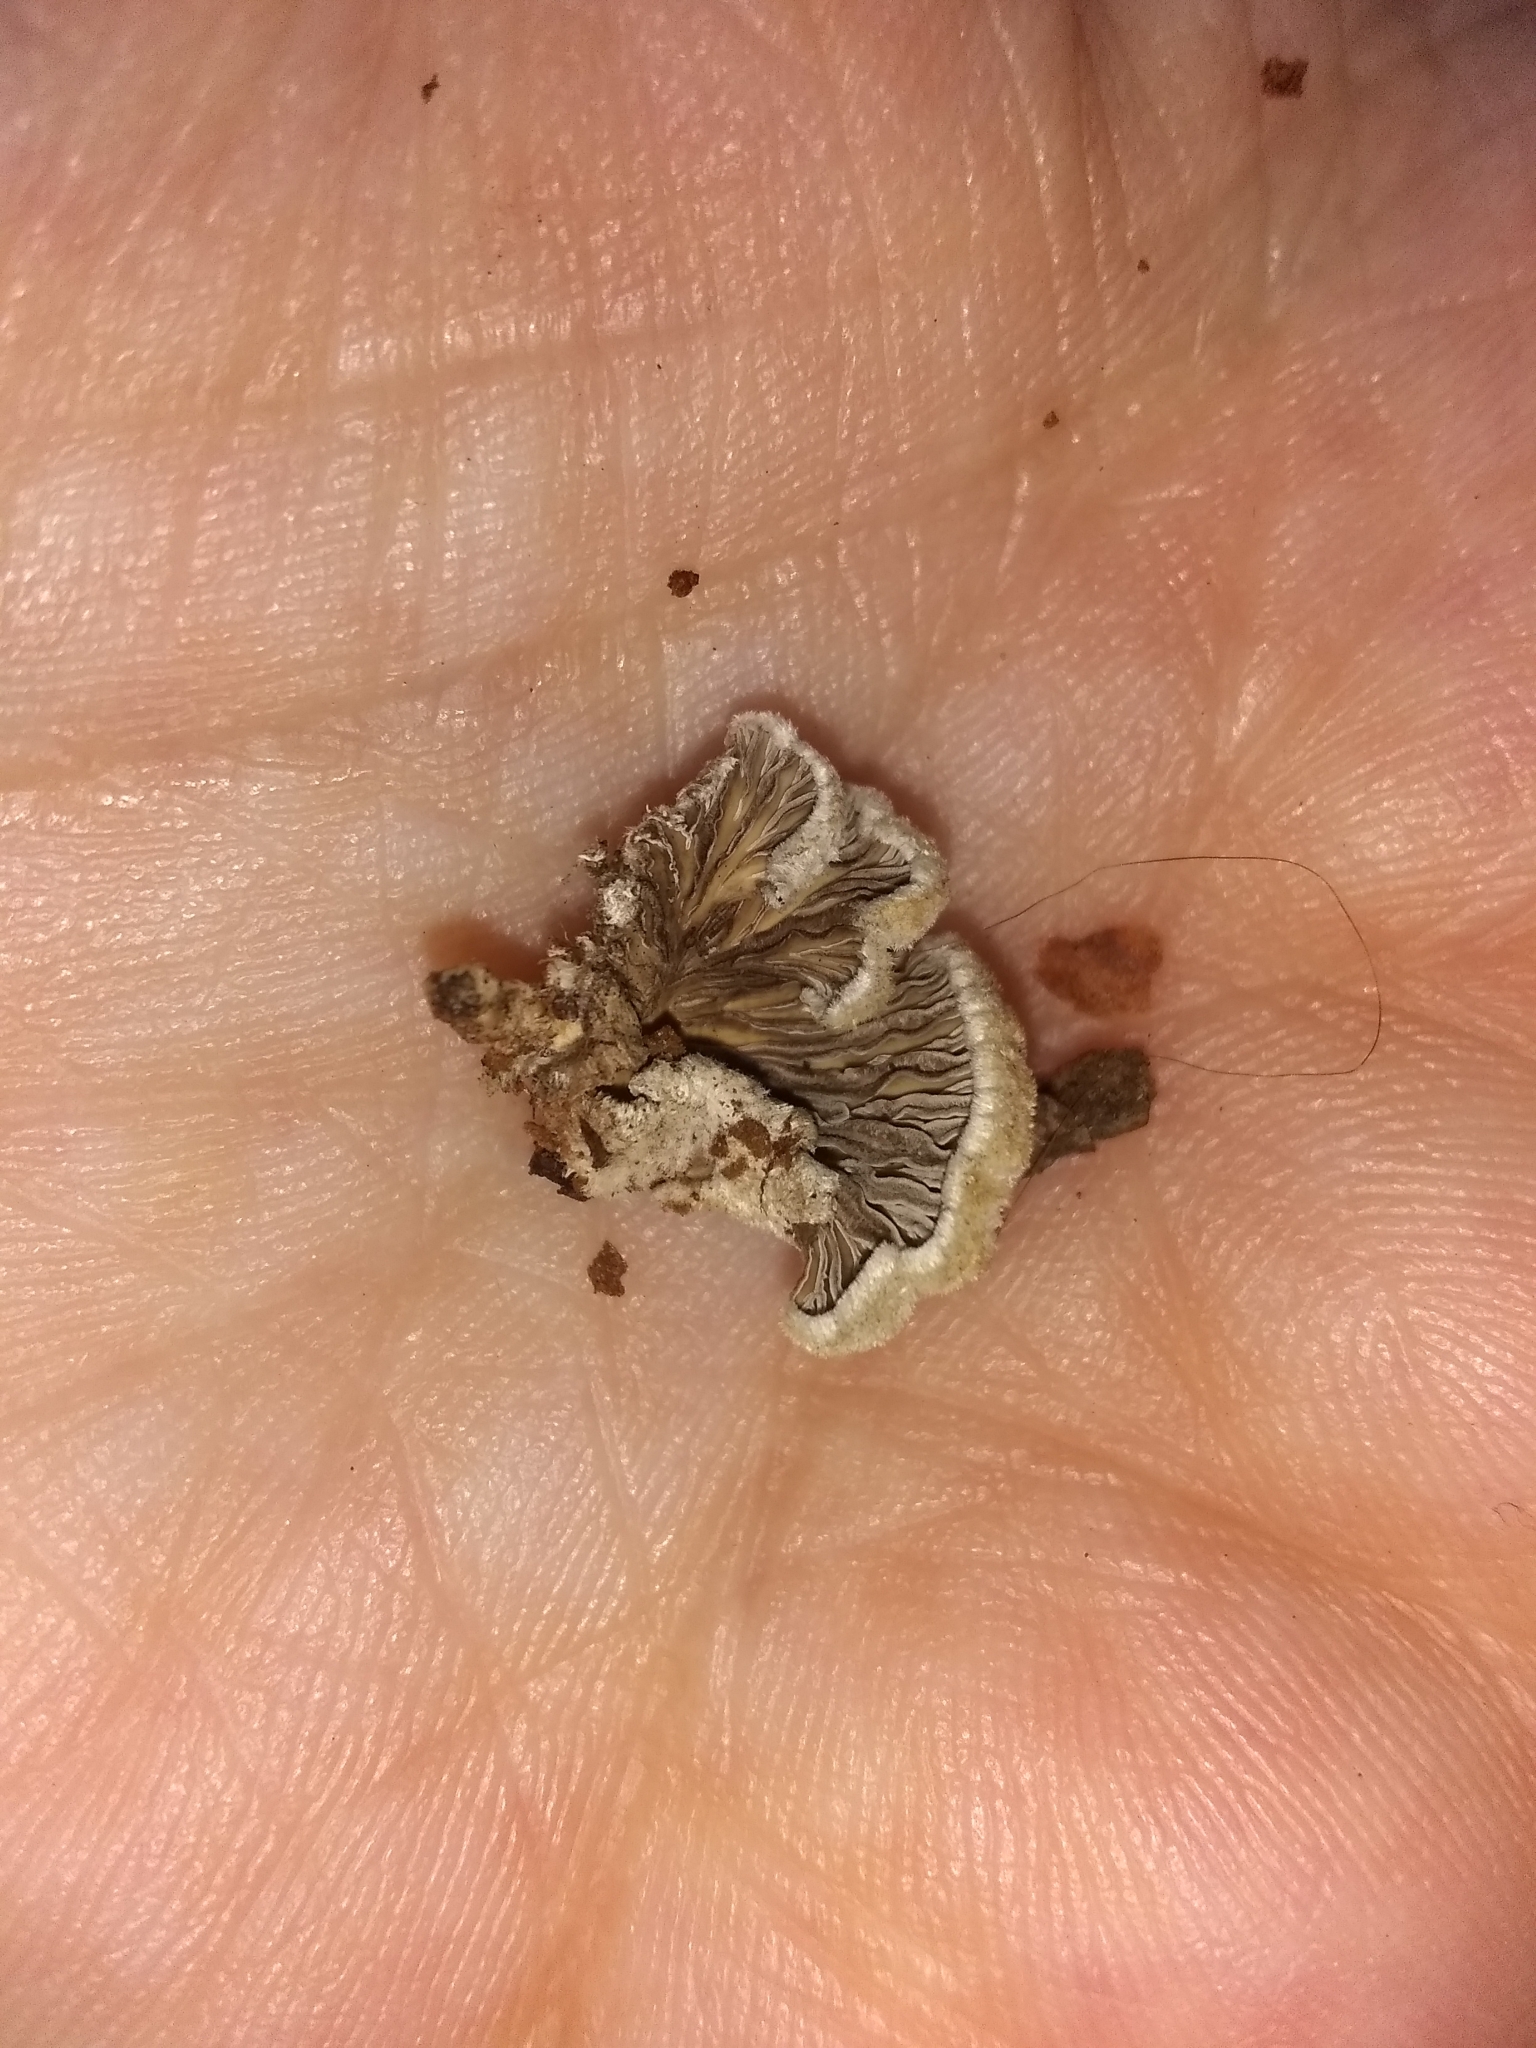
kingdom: Fungi
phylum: Basidiomycota
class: Agaricomycetes
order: Agaricales
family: Schizophyllaceae
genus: Schizophyllum
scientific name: Schizophyllum commune
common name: Common porecrust
